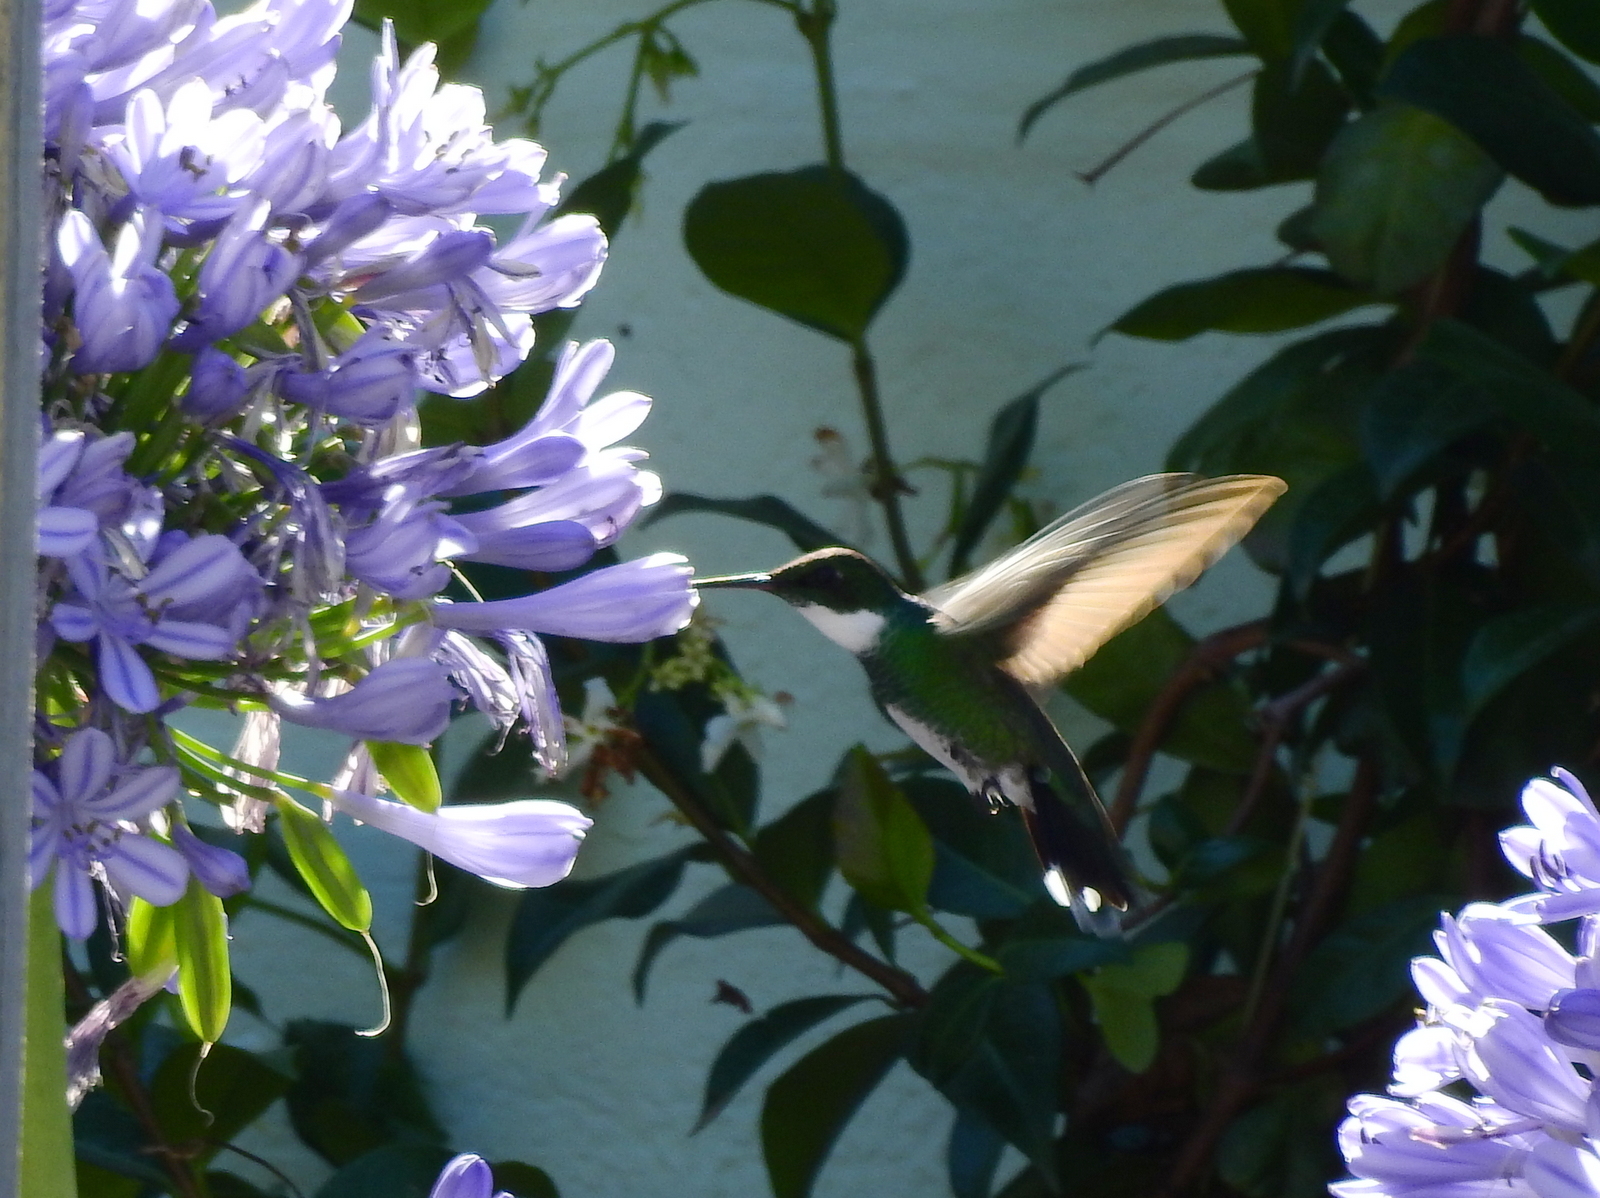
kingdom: Animalia
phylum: Chordata
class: Aves
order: Apodiformes
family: Trochilidae
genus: Leucochloris
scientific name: Leucochloris albicollis
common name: White-throated hummingbird
